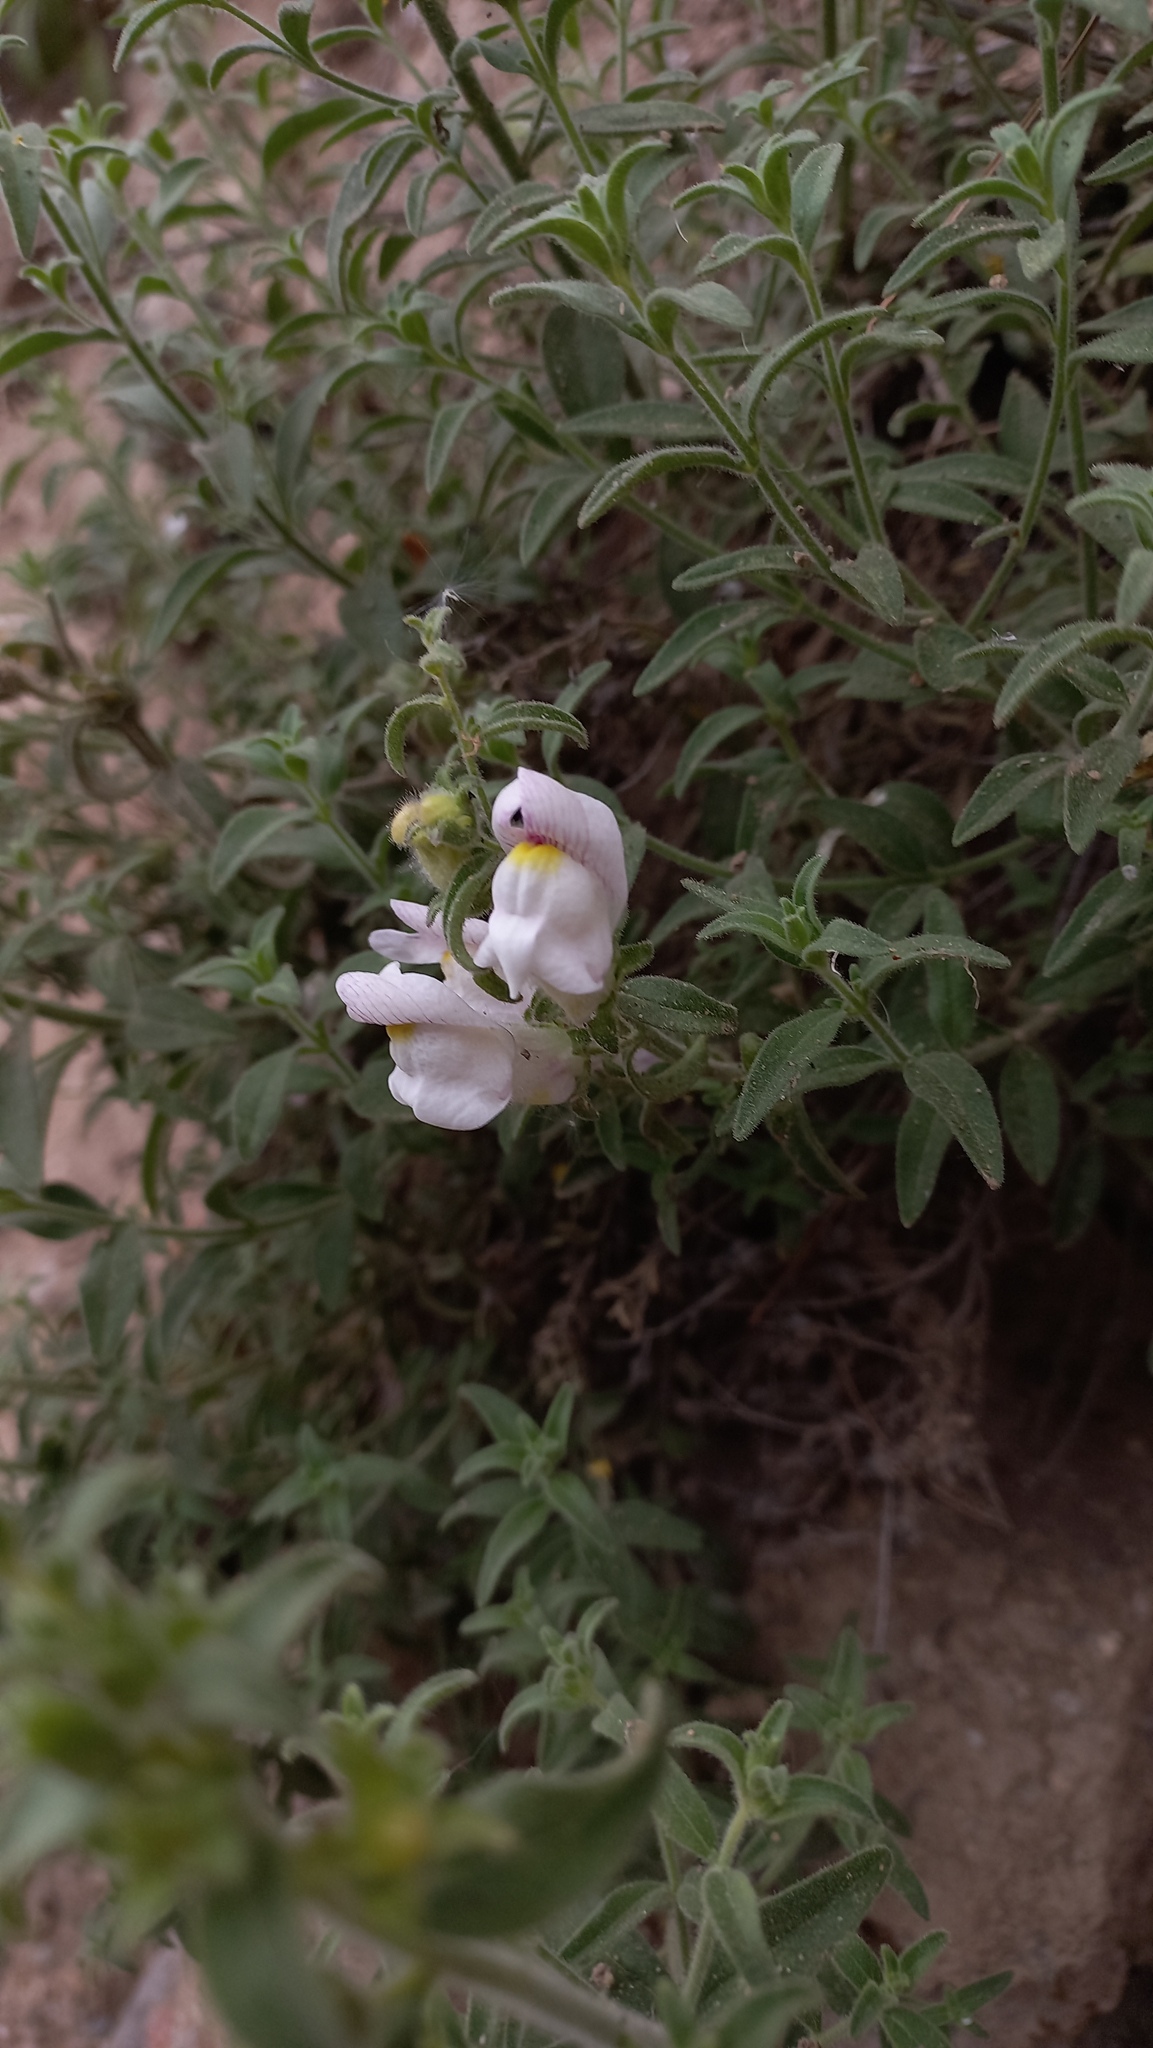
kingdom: Plantae
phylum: Tracheophyta
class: Magnoliopsida
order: Lamiales
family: Plantaginaceae
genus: Antirrhinum
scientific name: Antirrhinum hispanicum
